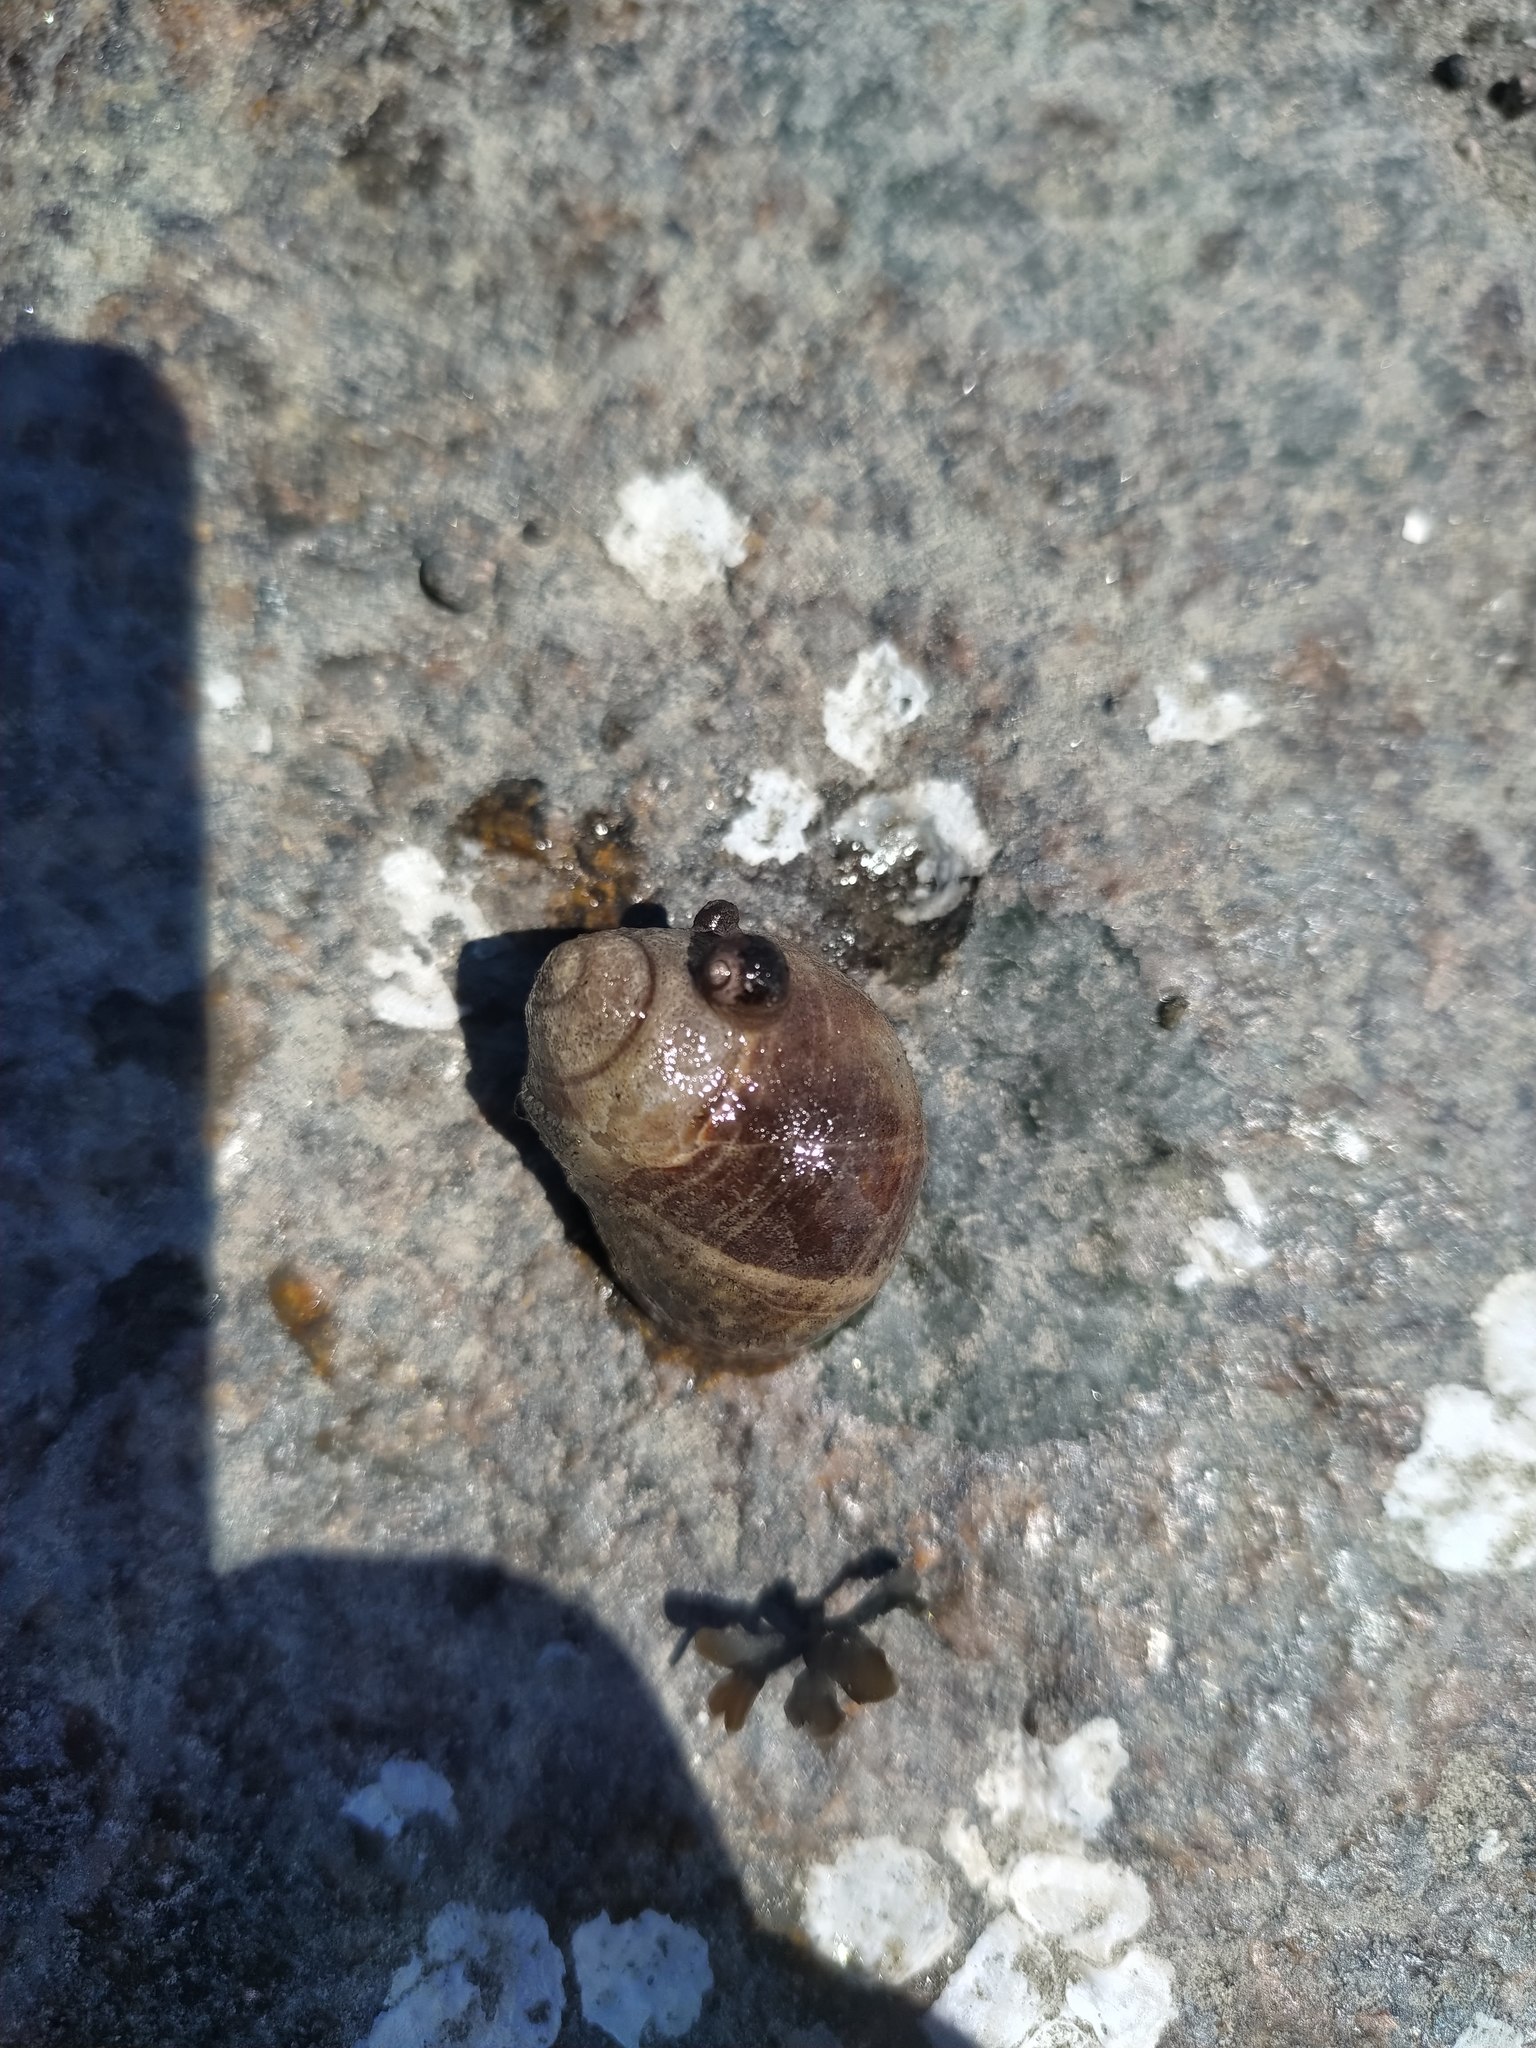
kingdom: Animalia
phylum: Mollusca
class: Gastropoda
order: Littorinimorpha
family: Littorinidae
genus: Littorina
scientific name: Littorina littorea
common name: Common periwinkle
